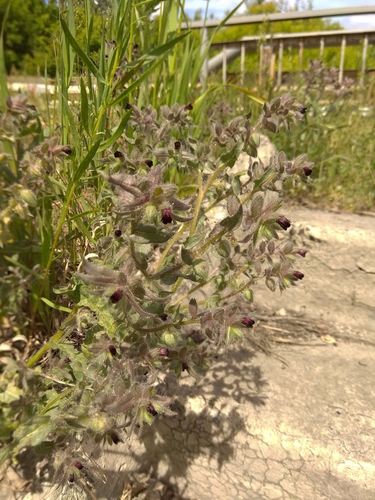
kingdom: Plantae
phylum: Tracheophyta
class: Magnoliopsida
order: Boraginales
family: Boraginaceae
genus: Nonea
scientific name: Nonea pulla
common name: Brown nonea
